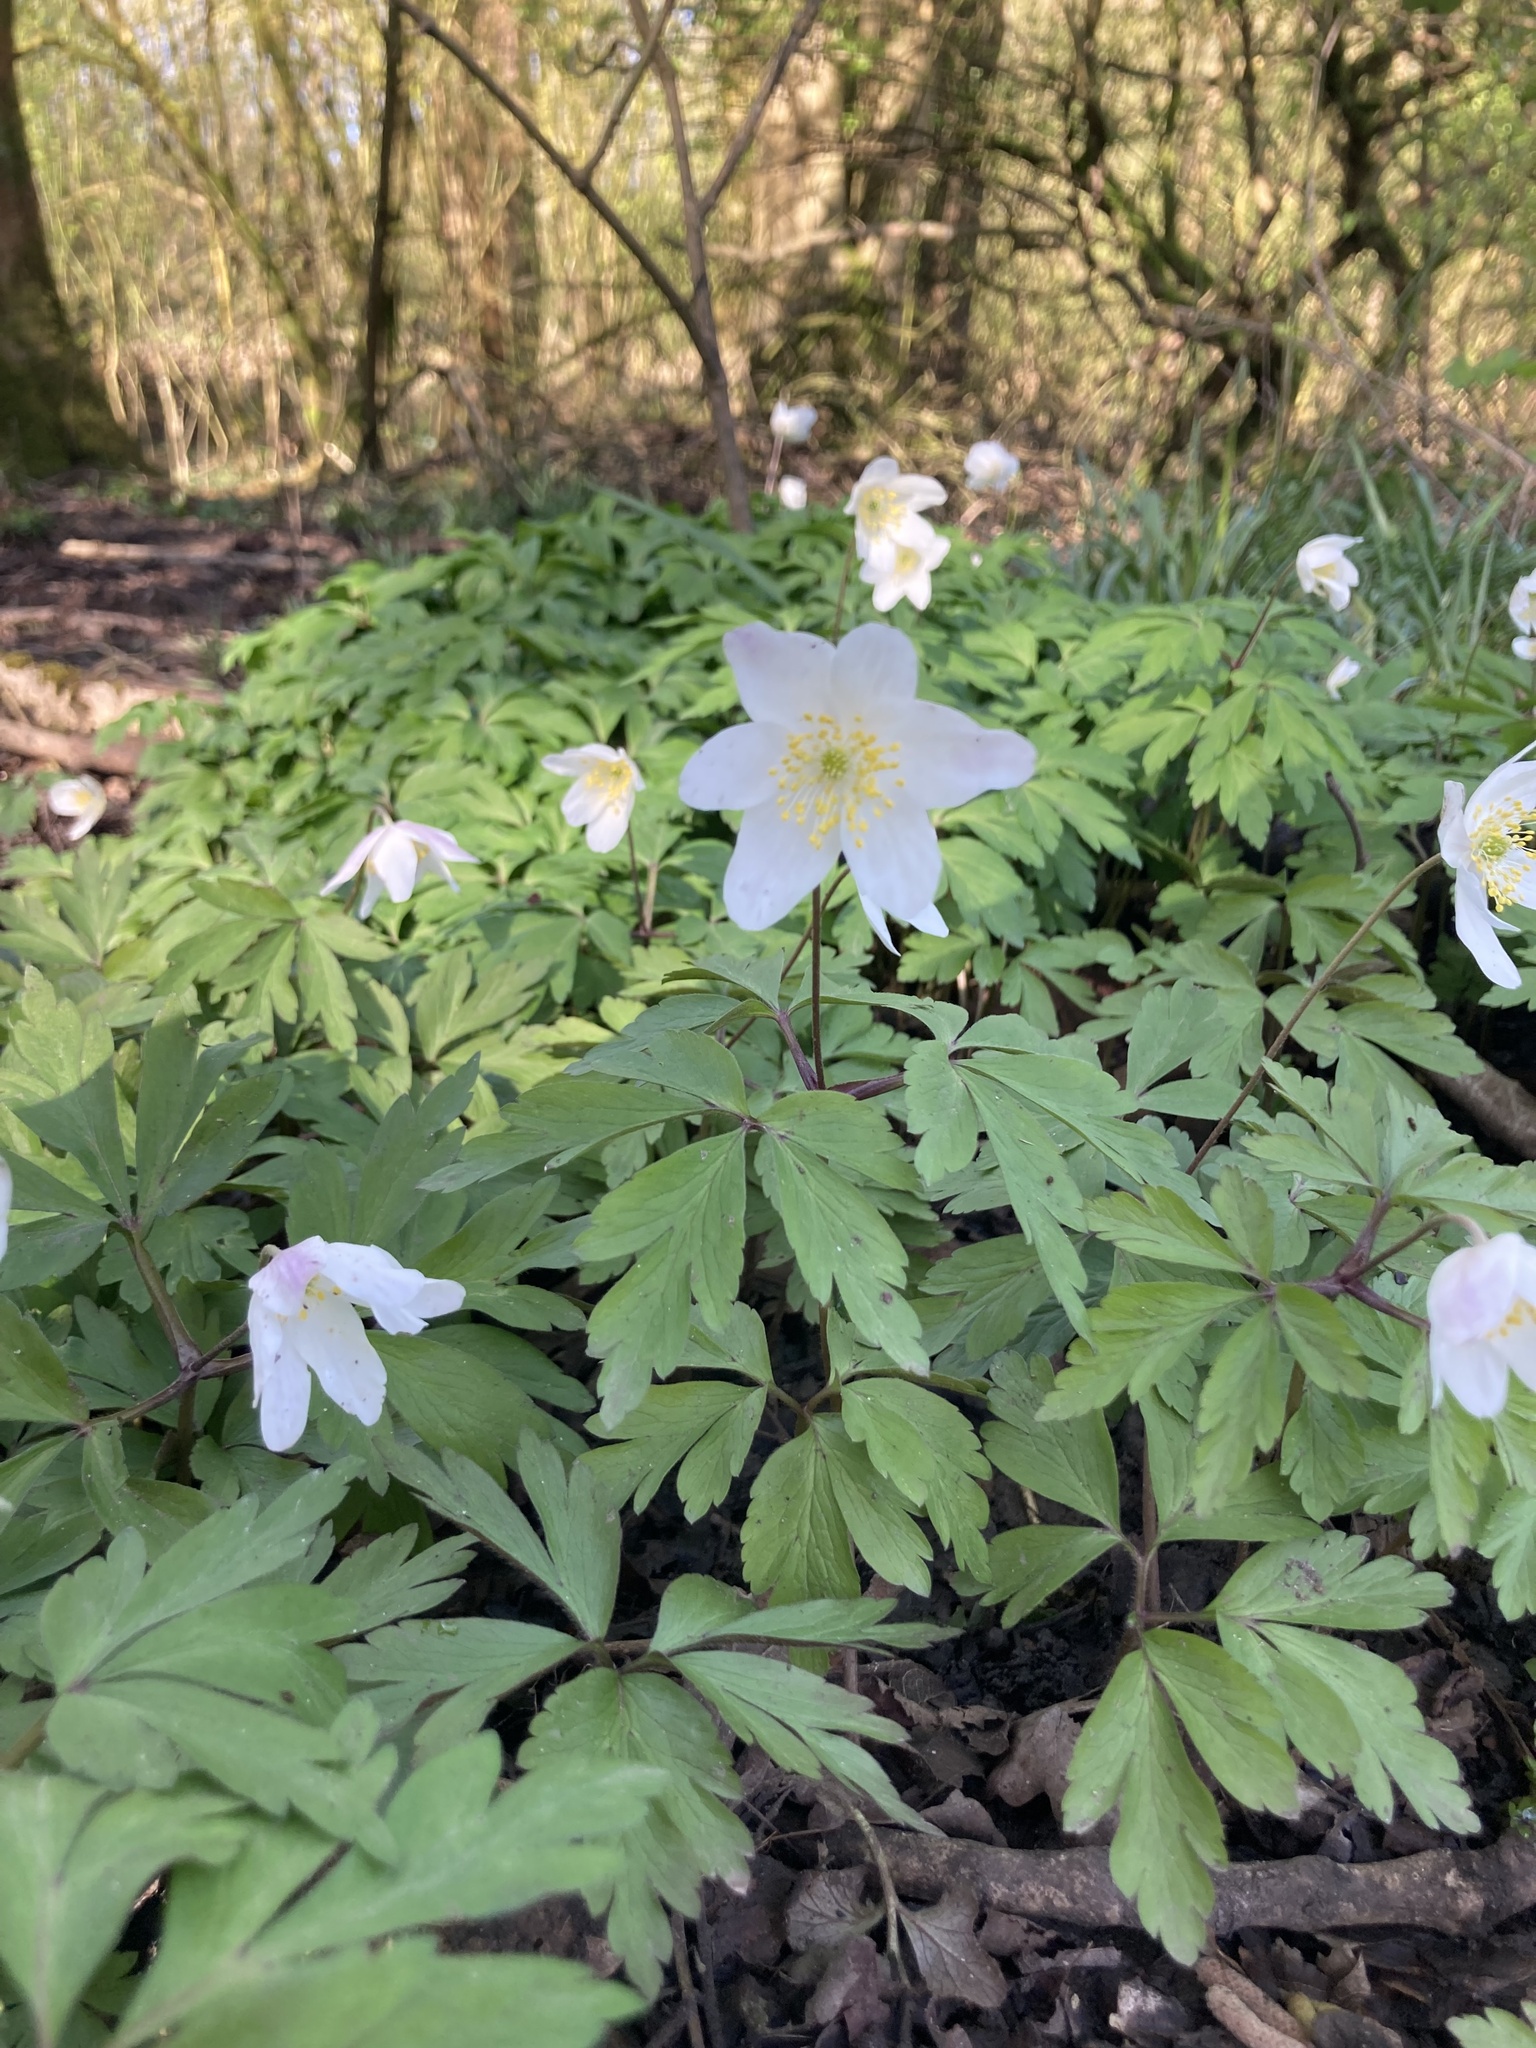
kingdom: Plantae
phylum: Tracheophyta
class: Magnoliopsida
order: Ranunculales
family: Ranunculaceae
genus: Anemone
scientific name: Anemone nemorosa
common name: Wood anemone
